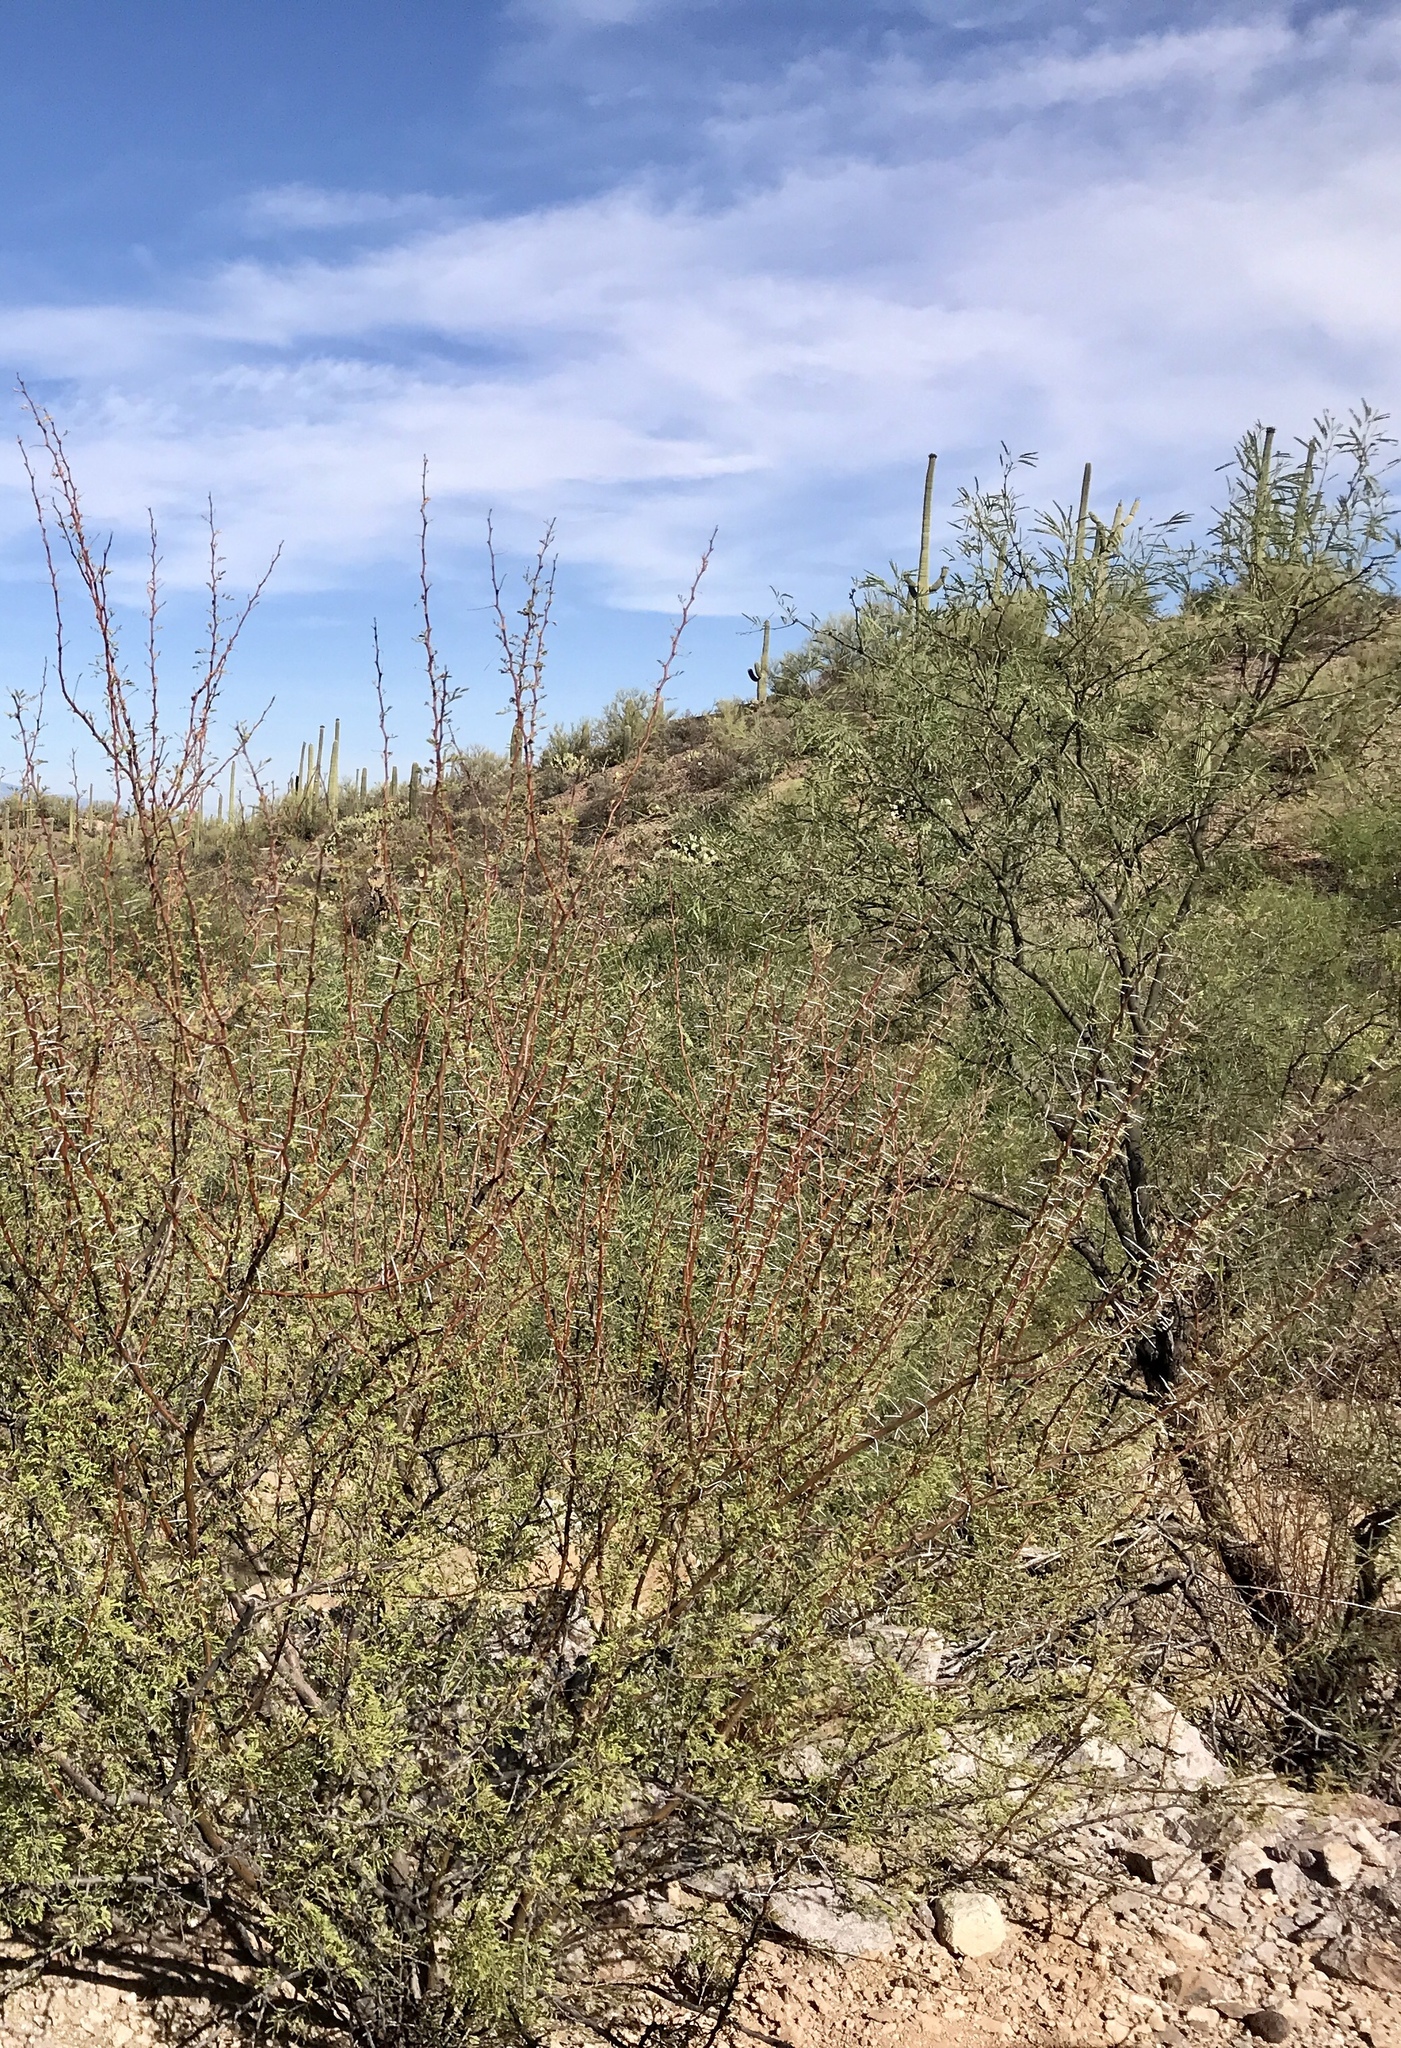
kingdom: Plantae
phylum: Tracheophyta
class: Magnoliopsida
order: Fabales
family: Fabaceae
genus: Vachellia
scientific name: Vachellia constricta
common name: Mescat acacia
